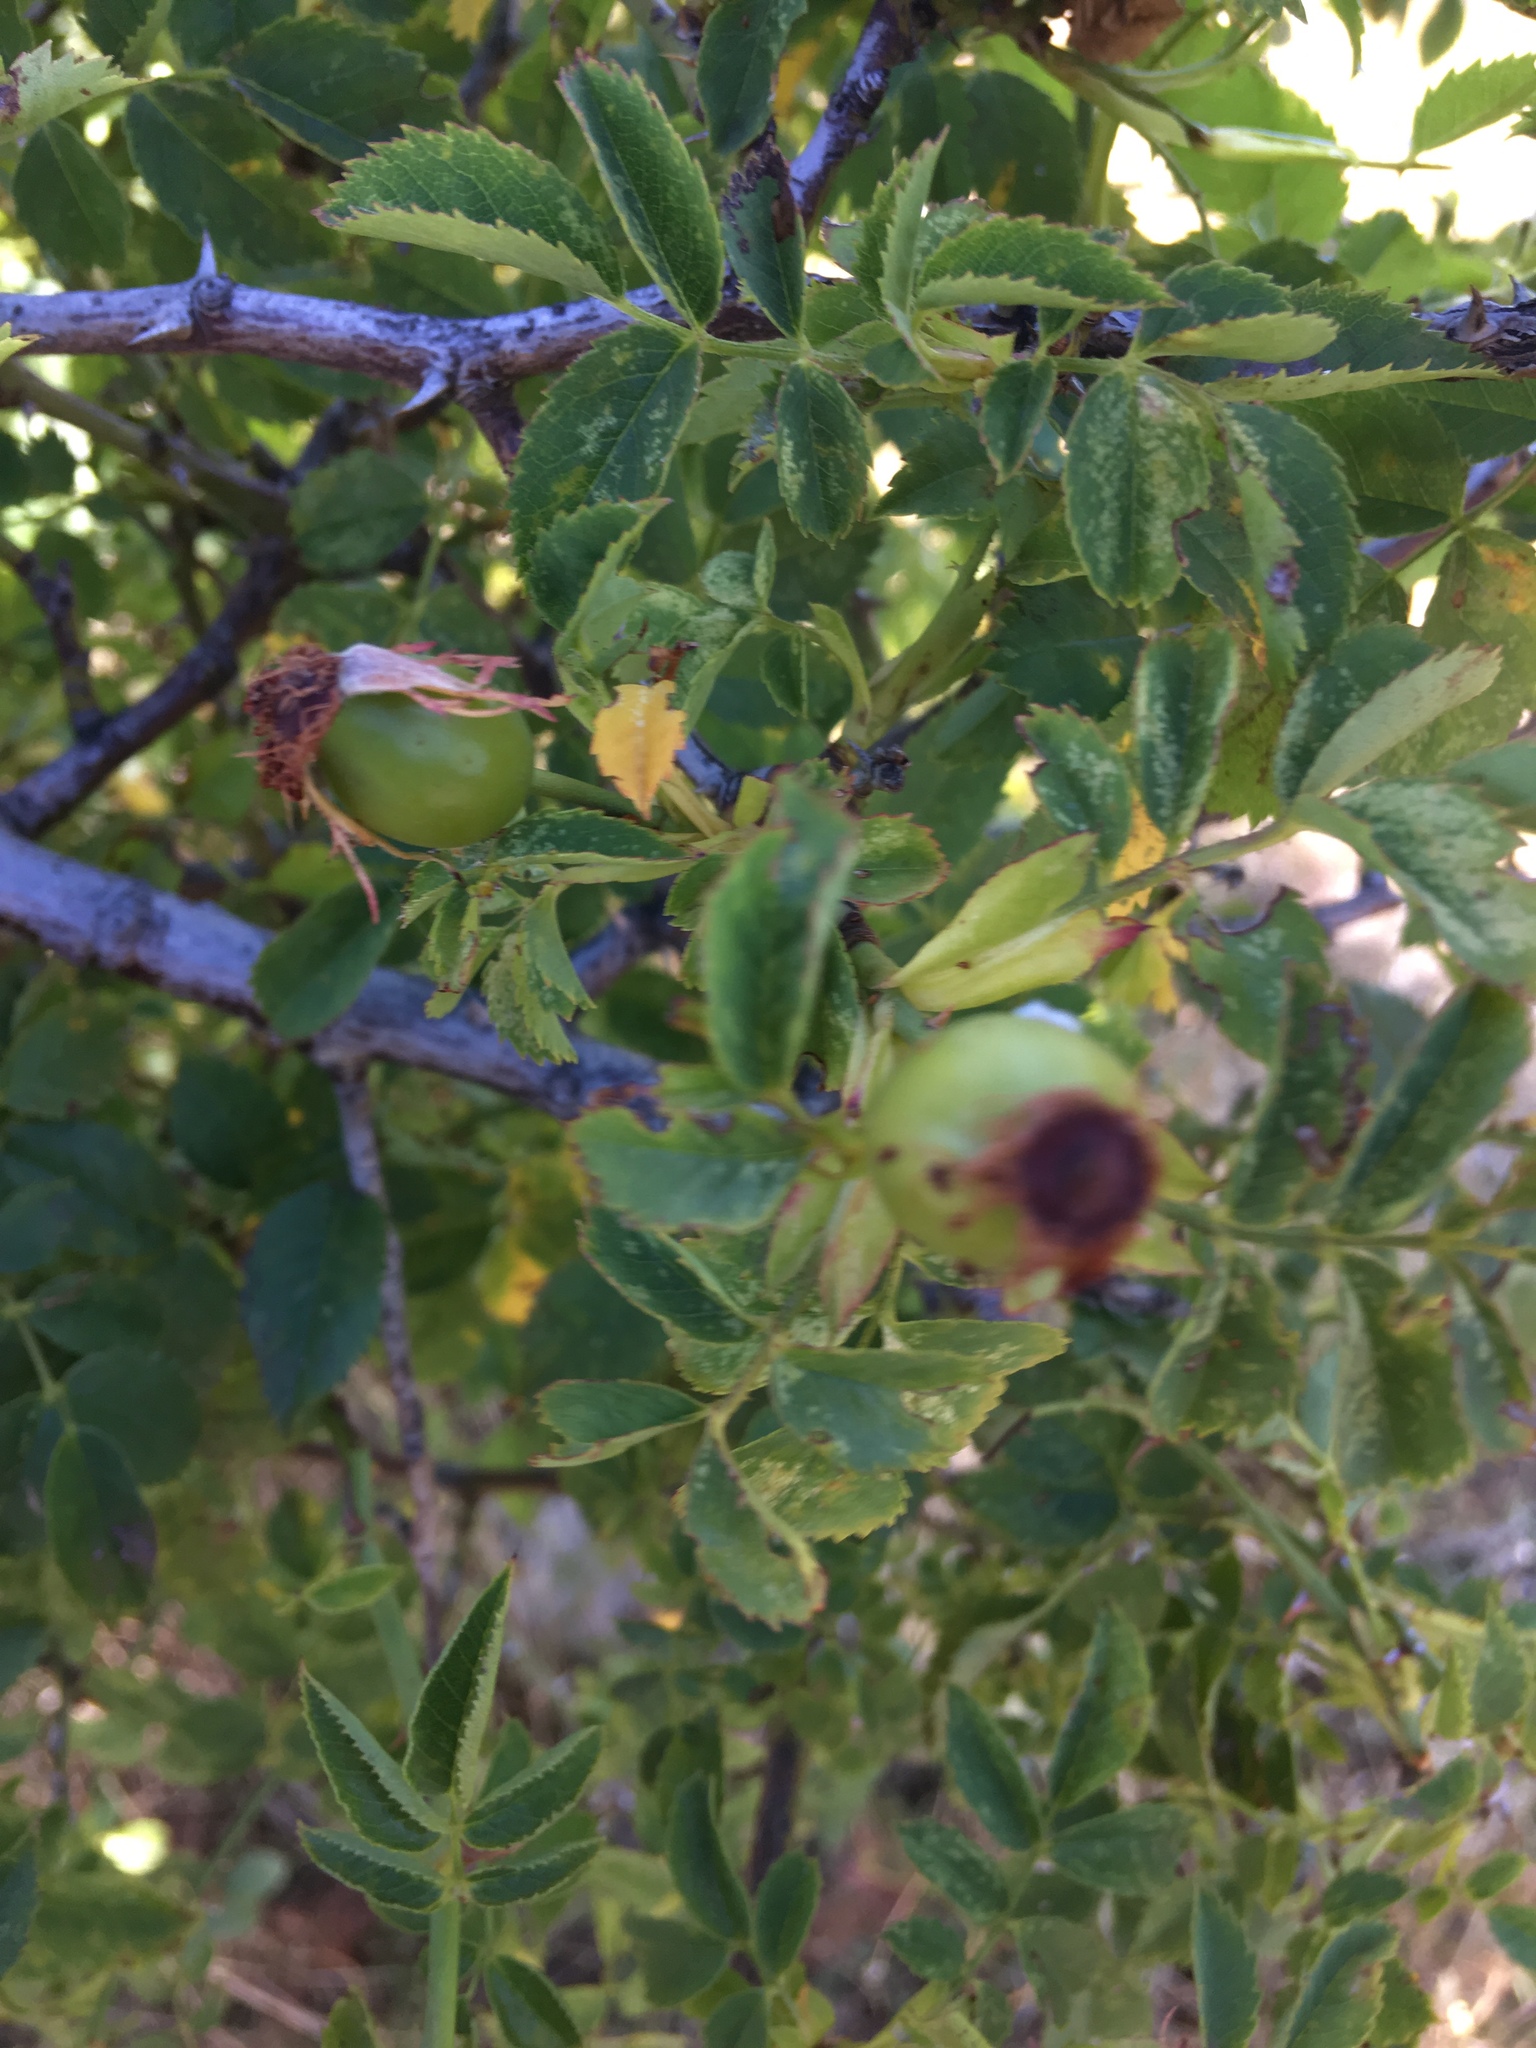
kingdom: Plantae
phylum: Tracheophyta
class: Magnoliopsida
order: Rosales
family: Rosaceae
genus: Rosa
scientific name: Rosa canina
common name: Dog rose
